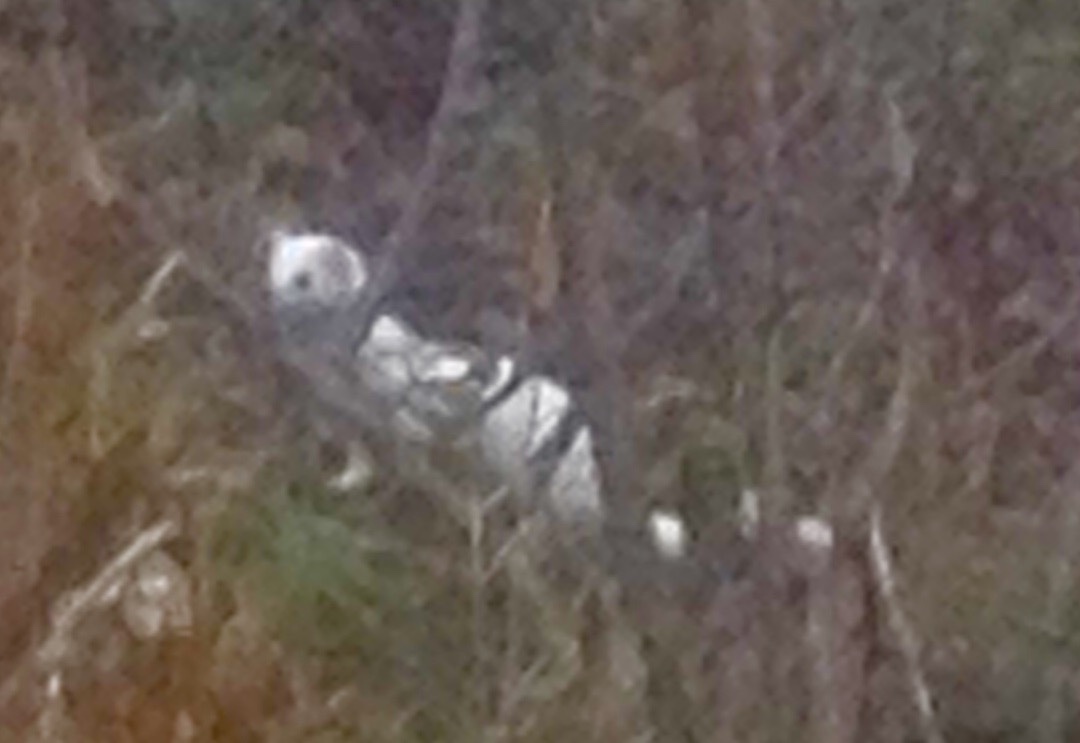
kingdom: Animalia
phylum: Chordata
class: Mammalia
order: Carnivora
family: Mustelidae
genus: Mustela
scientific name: Mustela erminea
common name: Stoat
